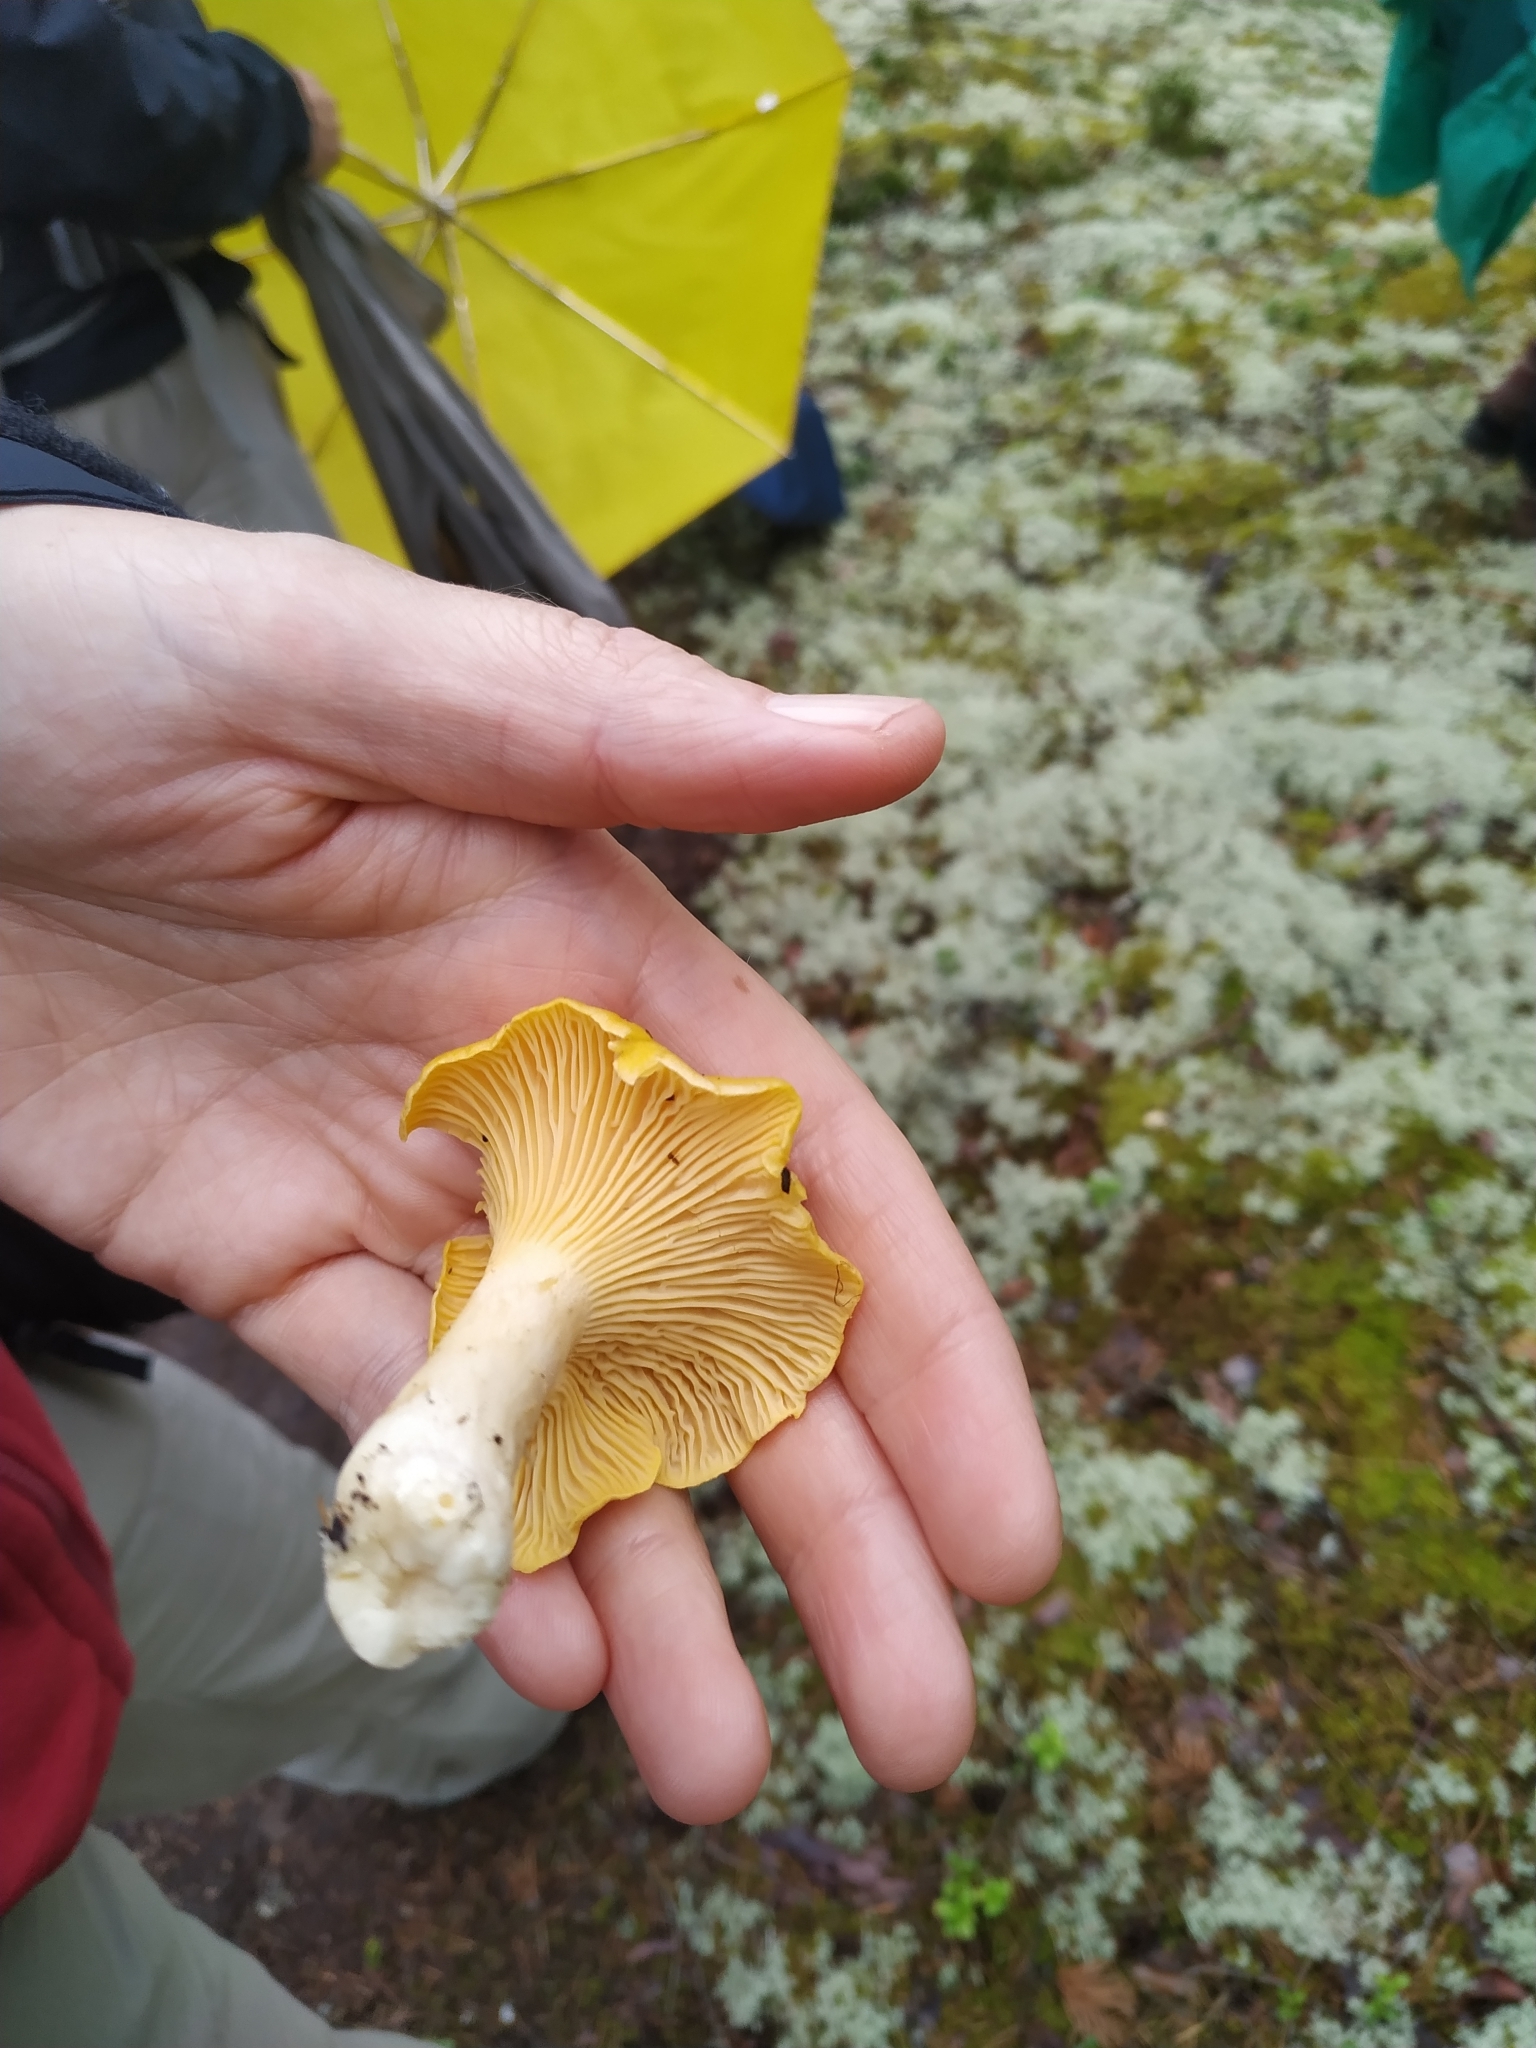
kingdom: Fungi
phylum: Basidiomycota
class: Agaricomycetes
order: Cantharellales
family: Hydnaceae
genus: Cantharellus
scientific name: Cantharellus cibarius
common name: Chanterelle
